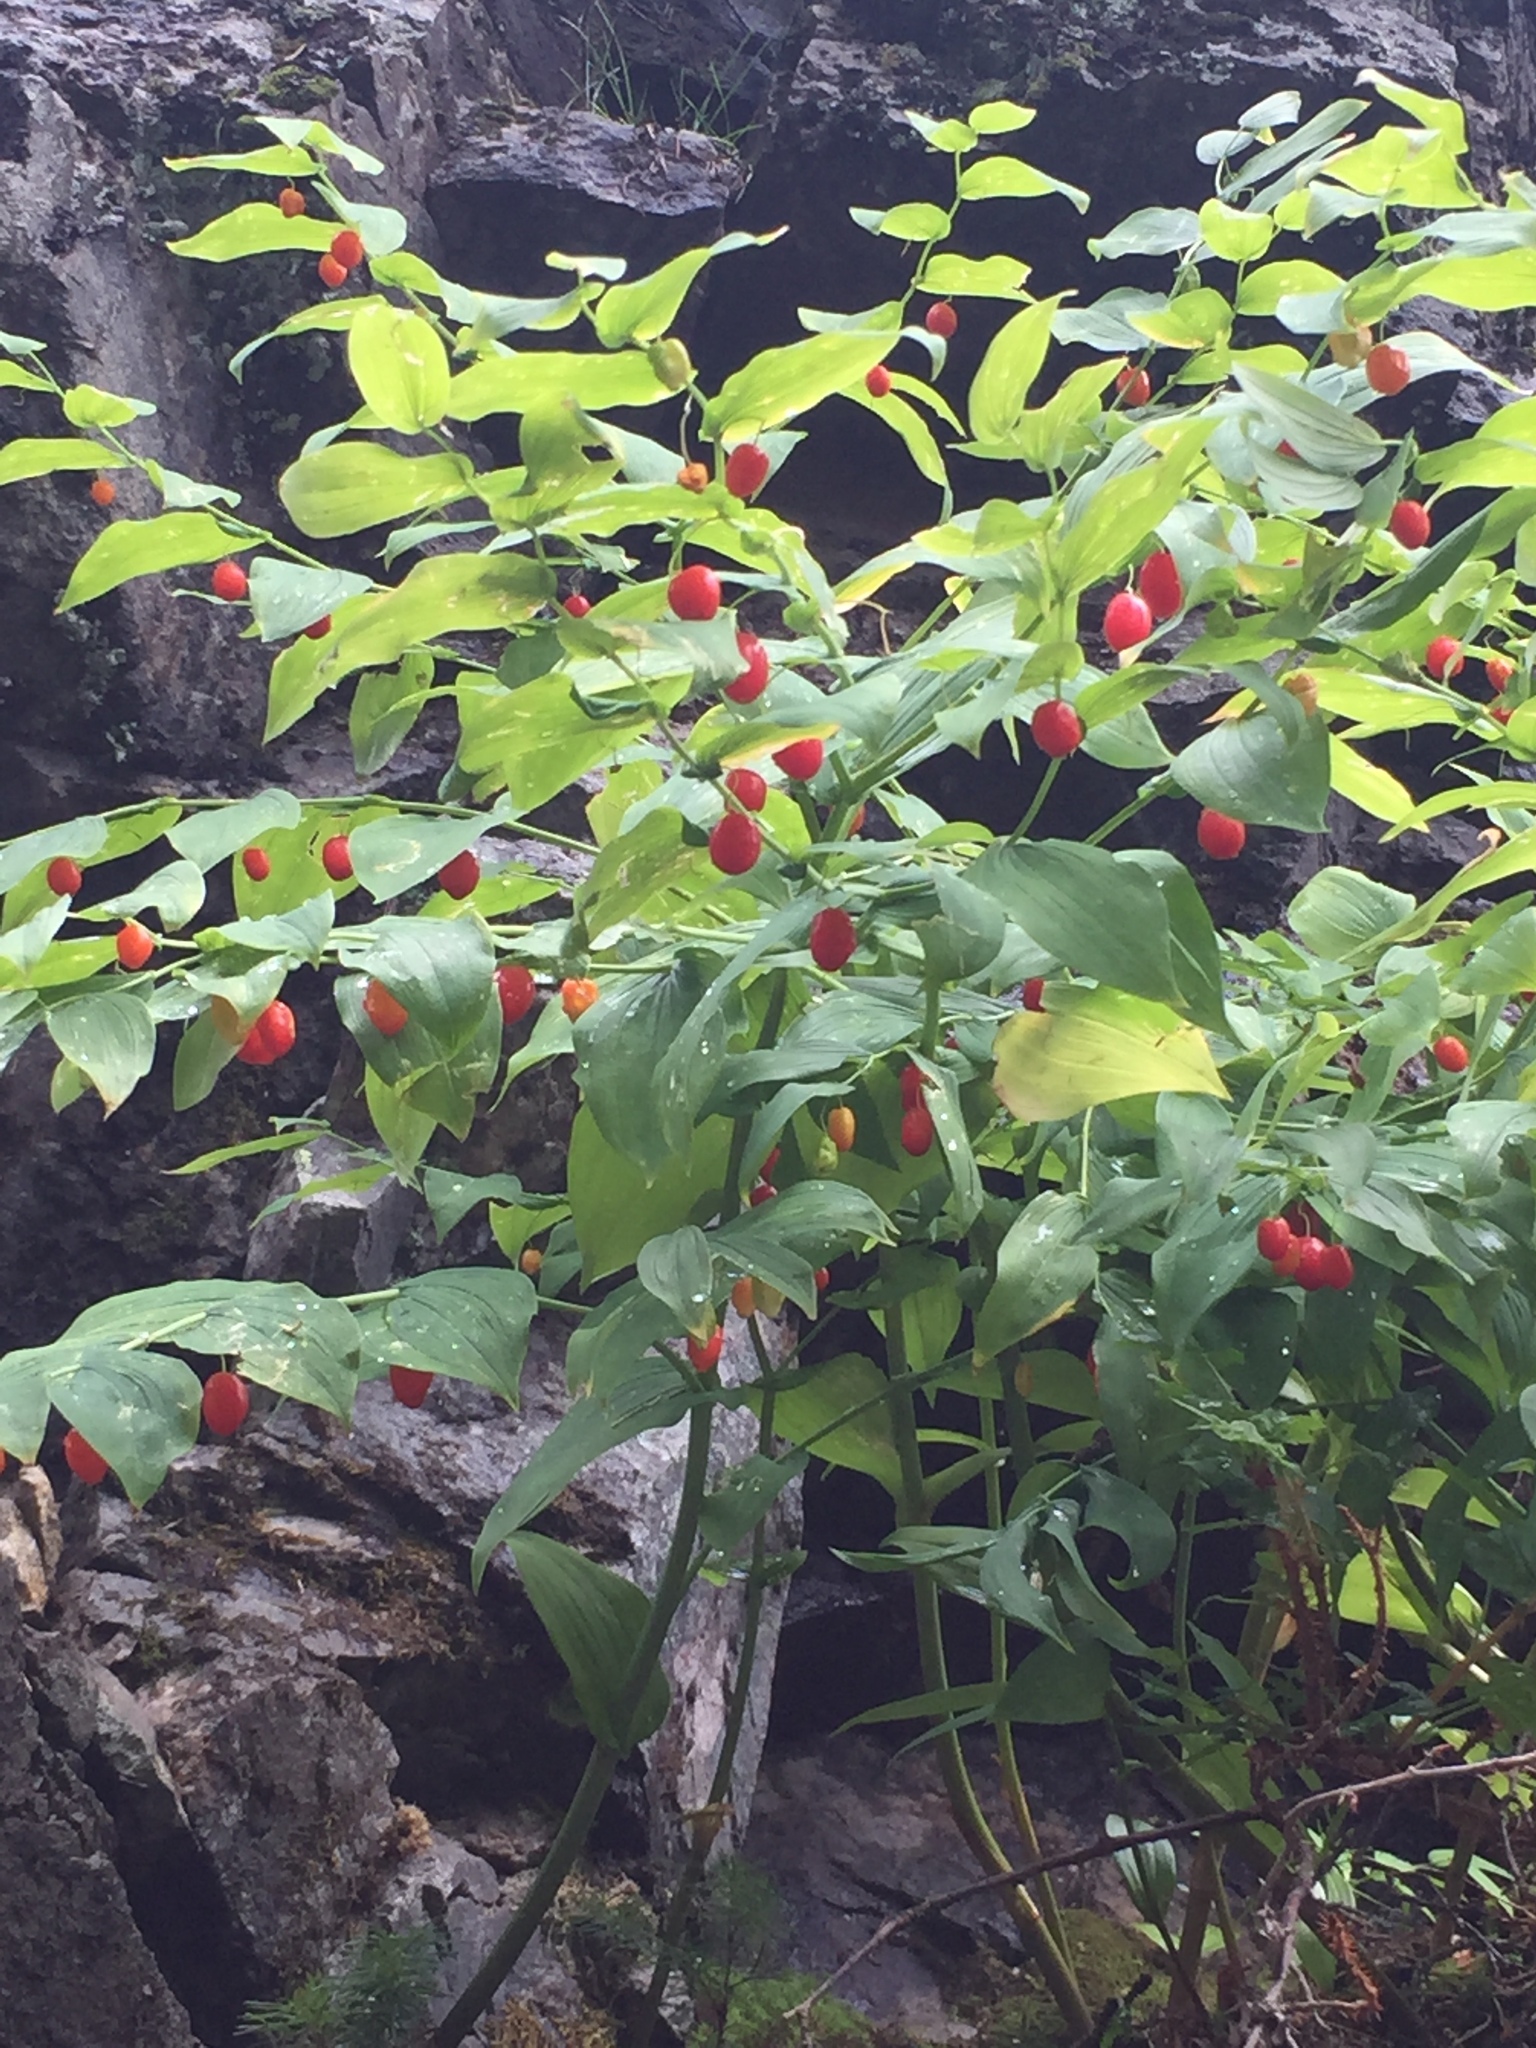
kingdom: Plantae
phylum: Tracheophyta
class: Liliopsida
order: Liliales
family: Liliaceae
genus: Streptopus
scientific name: Streptopus amplexifolius
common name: Clasp twisted stalk
